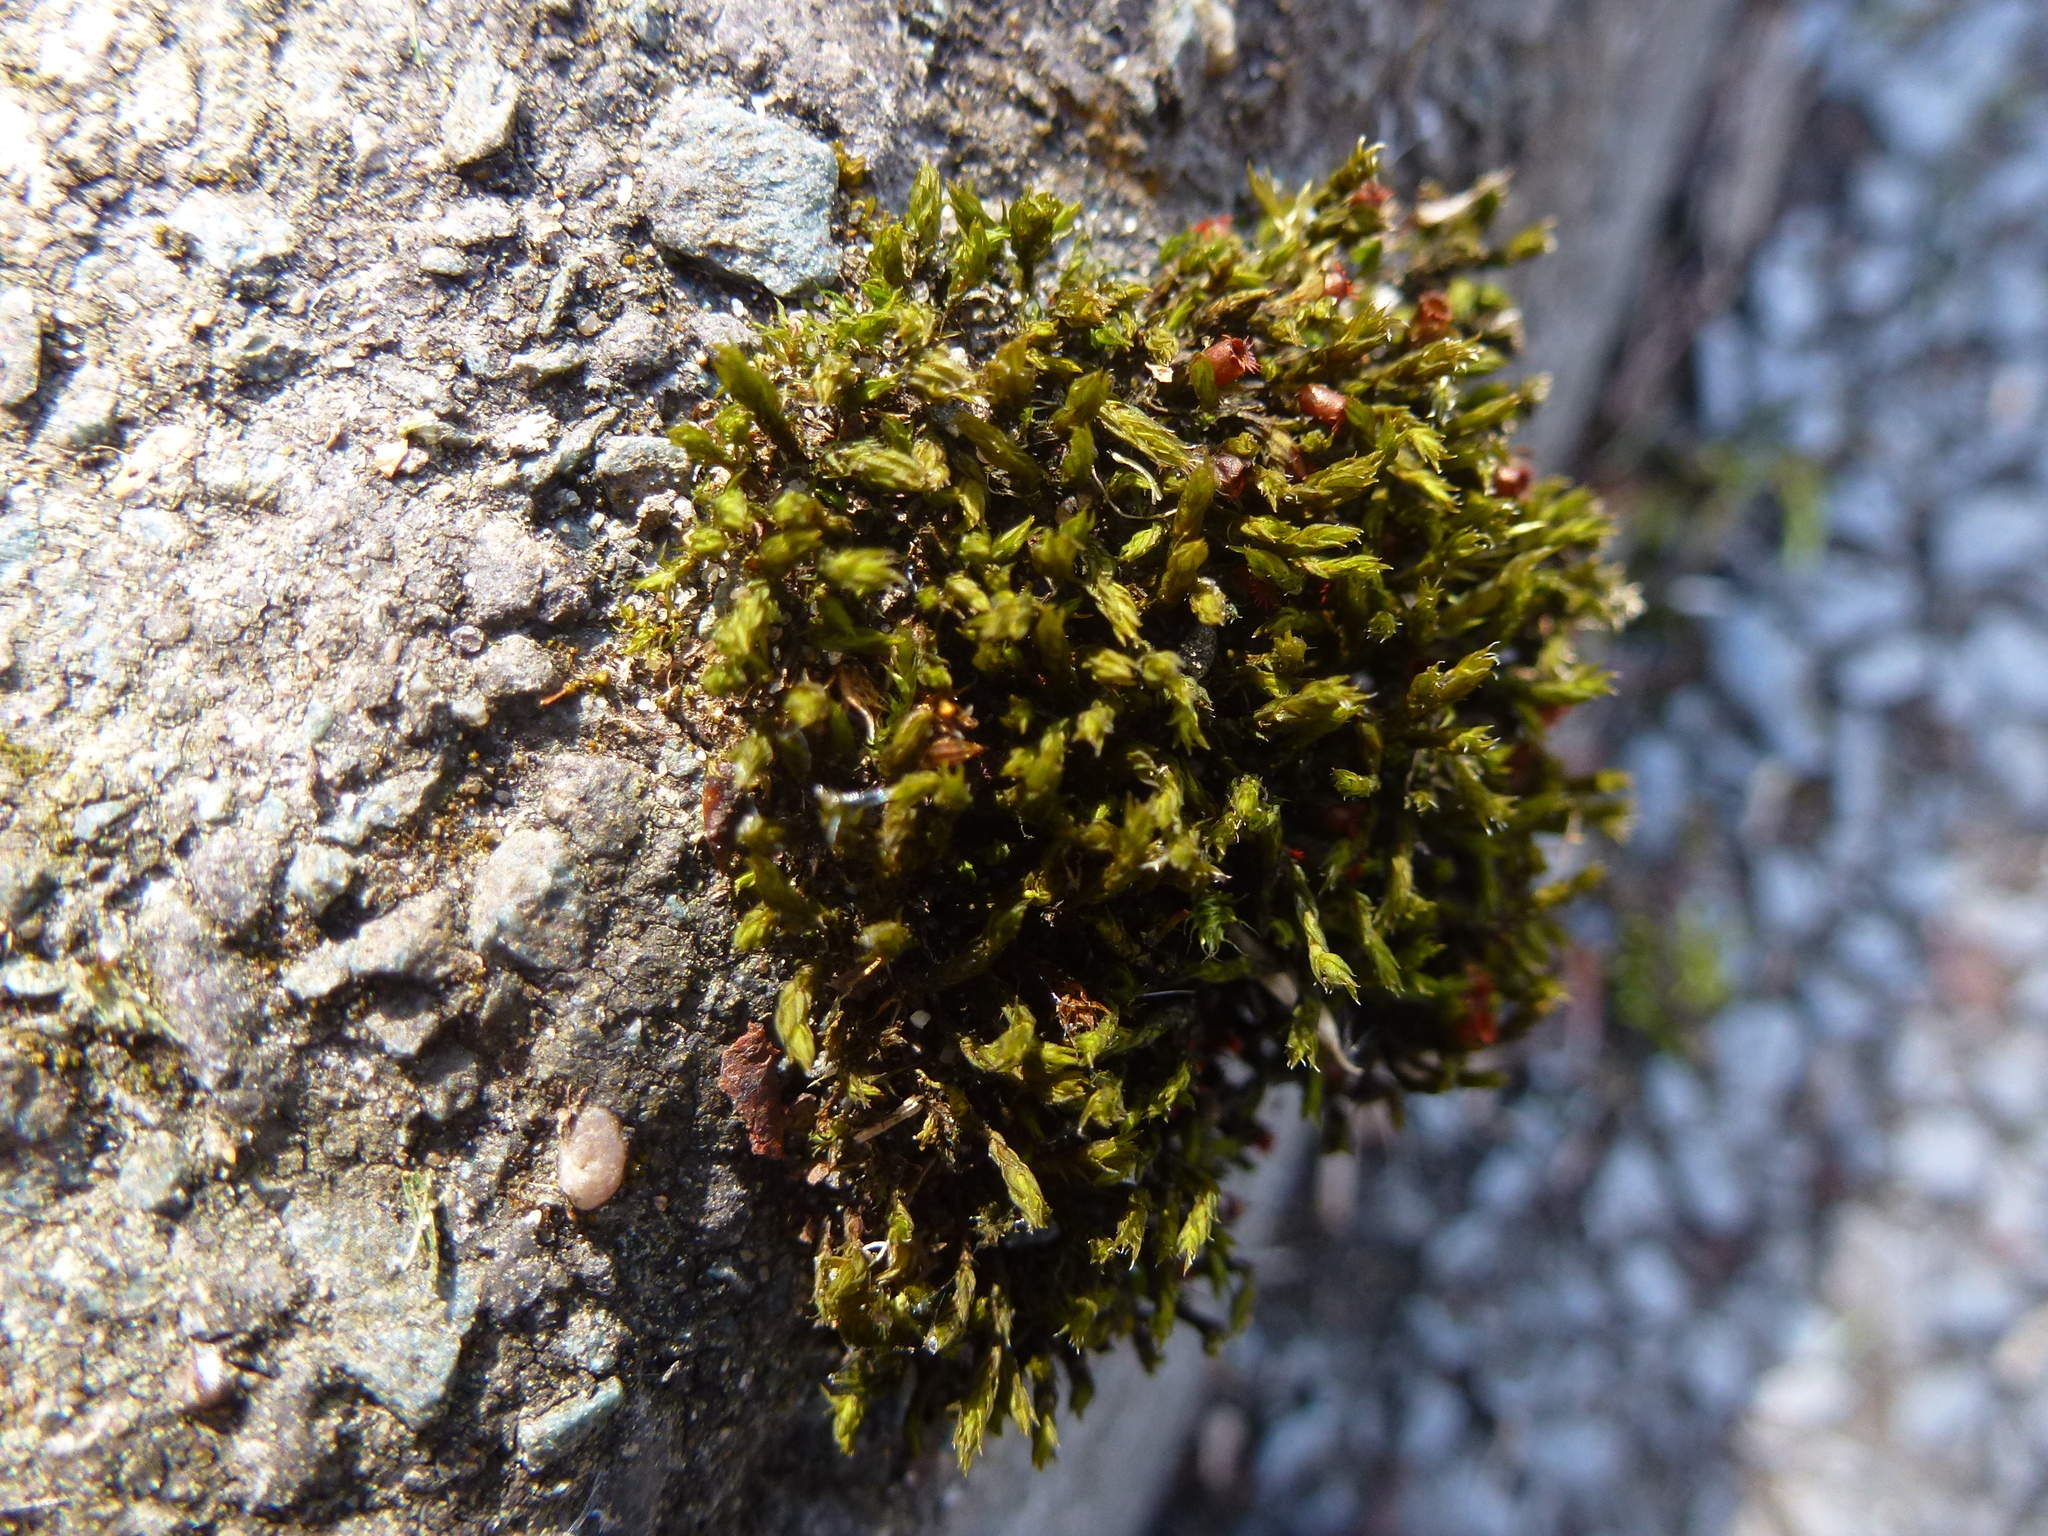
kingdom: Plantae
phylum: Bryophyta
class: Bryopsida
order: Orthotrichales
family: Orthotrichaceae
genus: Orthotrichum
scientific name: Orthotrichum anomalum
